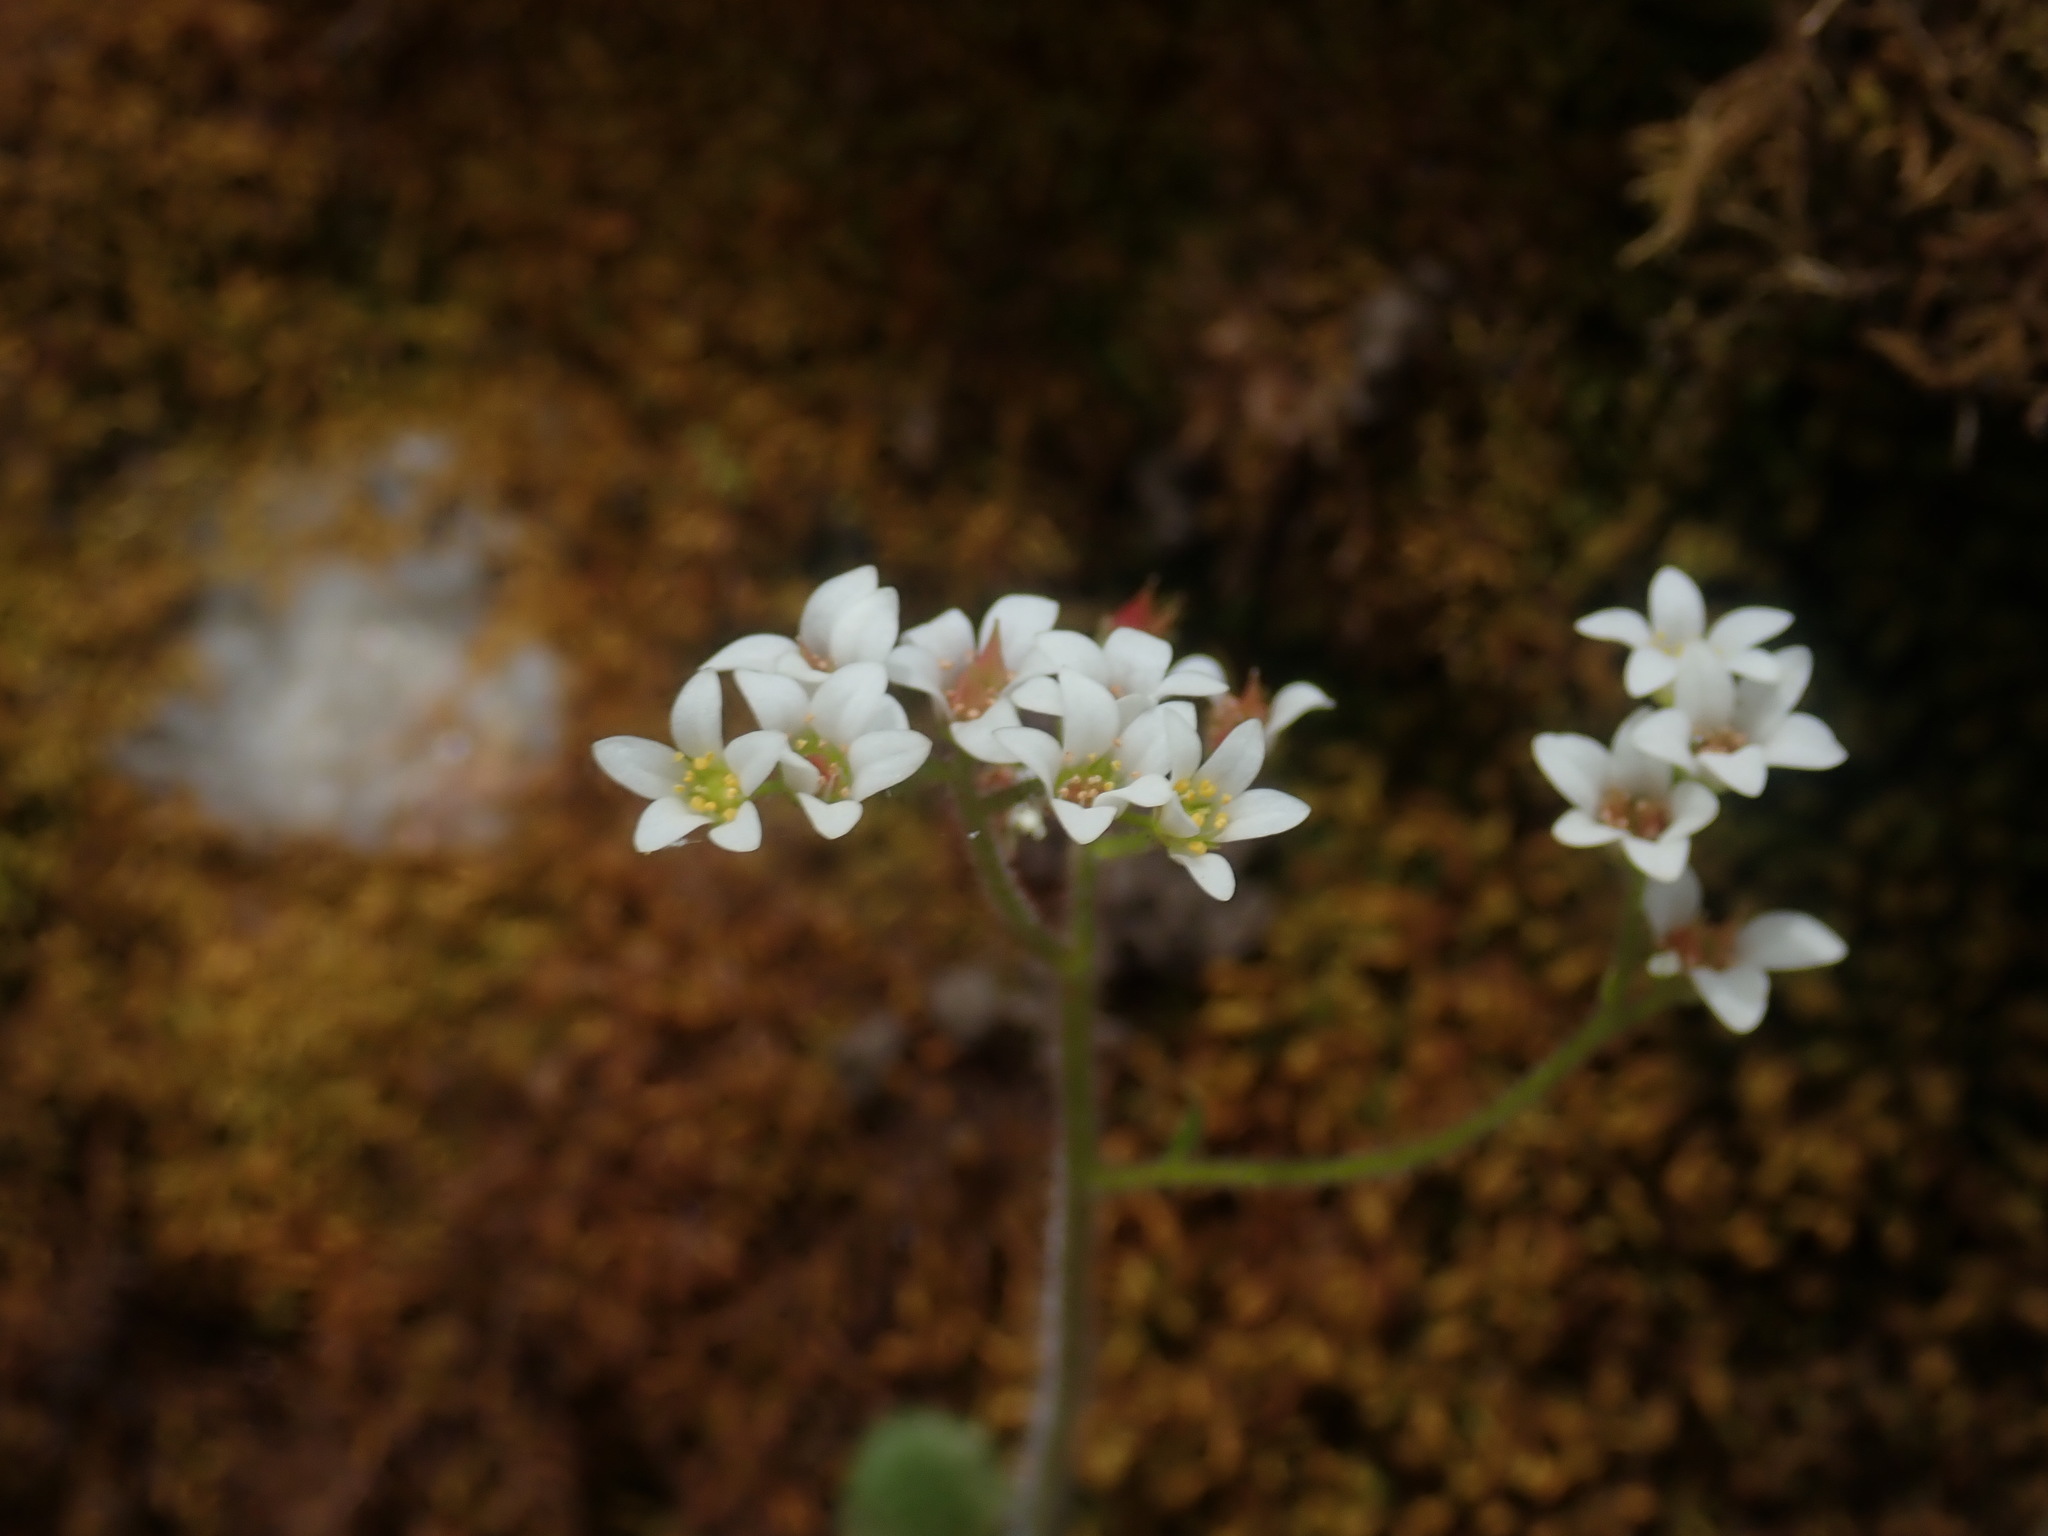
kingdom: Plantae
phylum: Tracheophyta
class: Magnoliopsida
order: Saxifragales
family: Saxifragaceae
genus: Micranthes
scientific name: Micranthes virginiensis
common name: Early saxifrage
